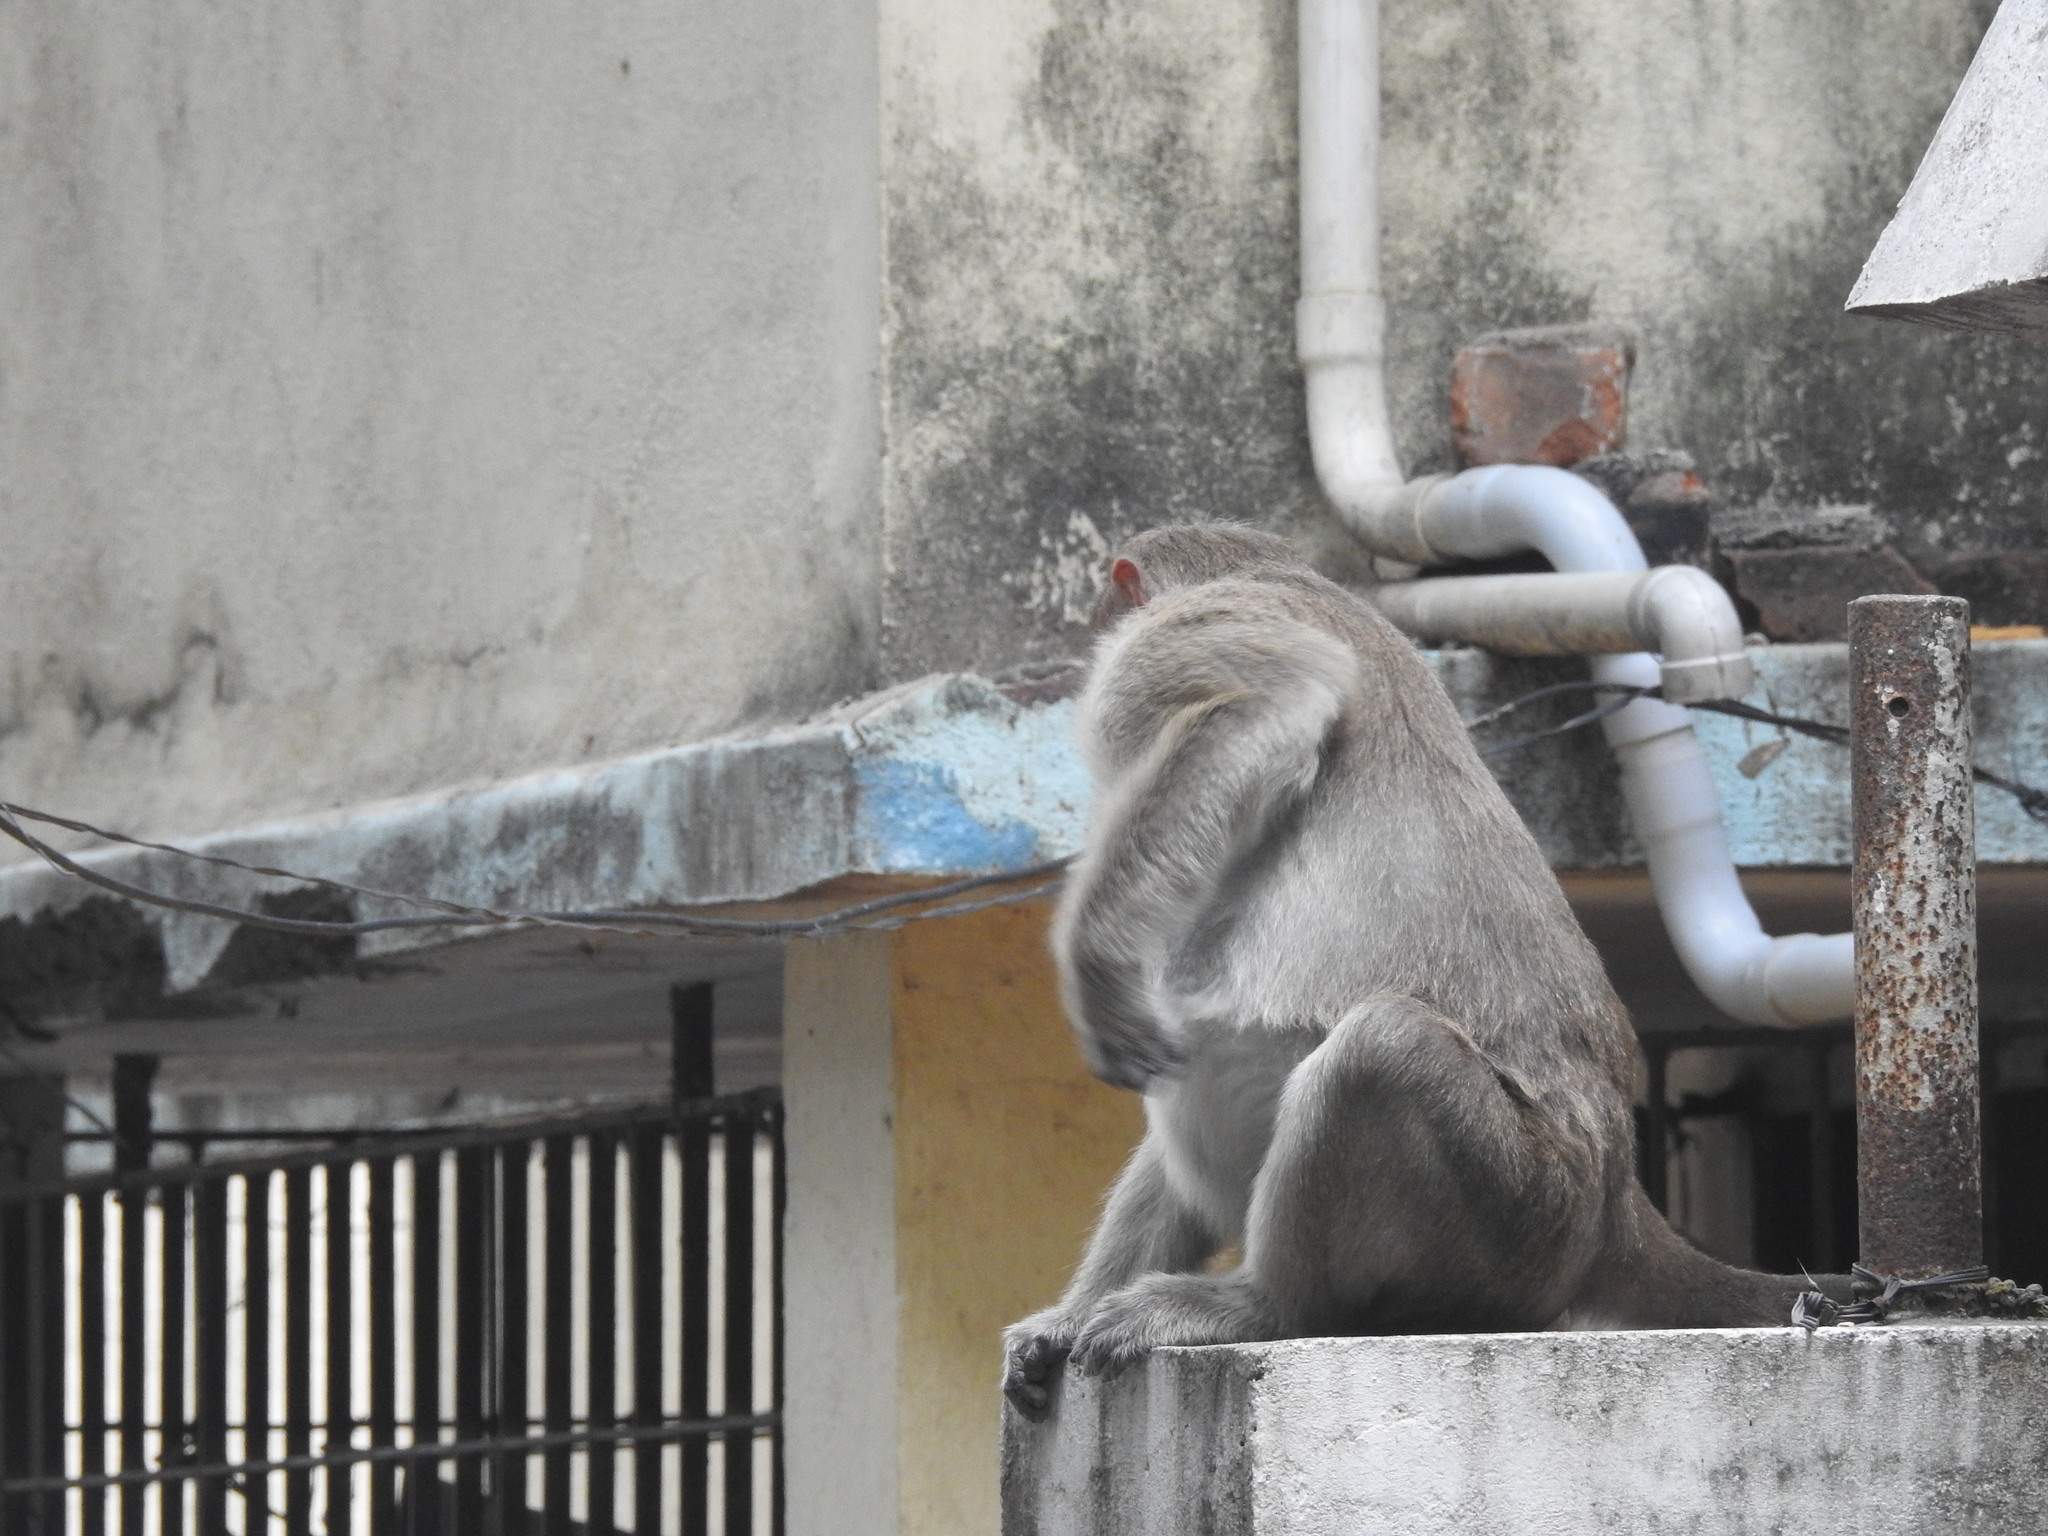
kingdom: Animalia
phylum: Chordata
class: Mammalia
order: Primates
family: Cercopithecidae
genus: Macaca
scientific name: Macaca radiata
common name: Bonnet macaque
